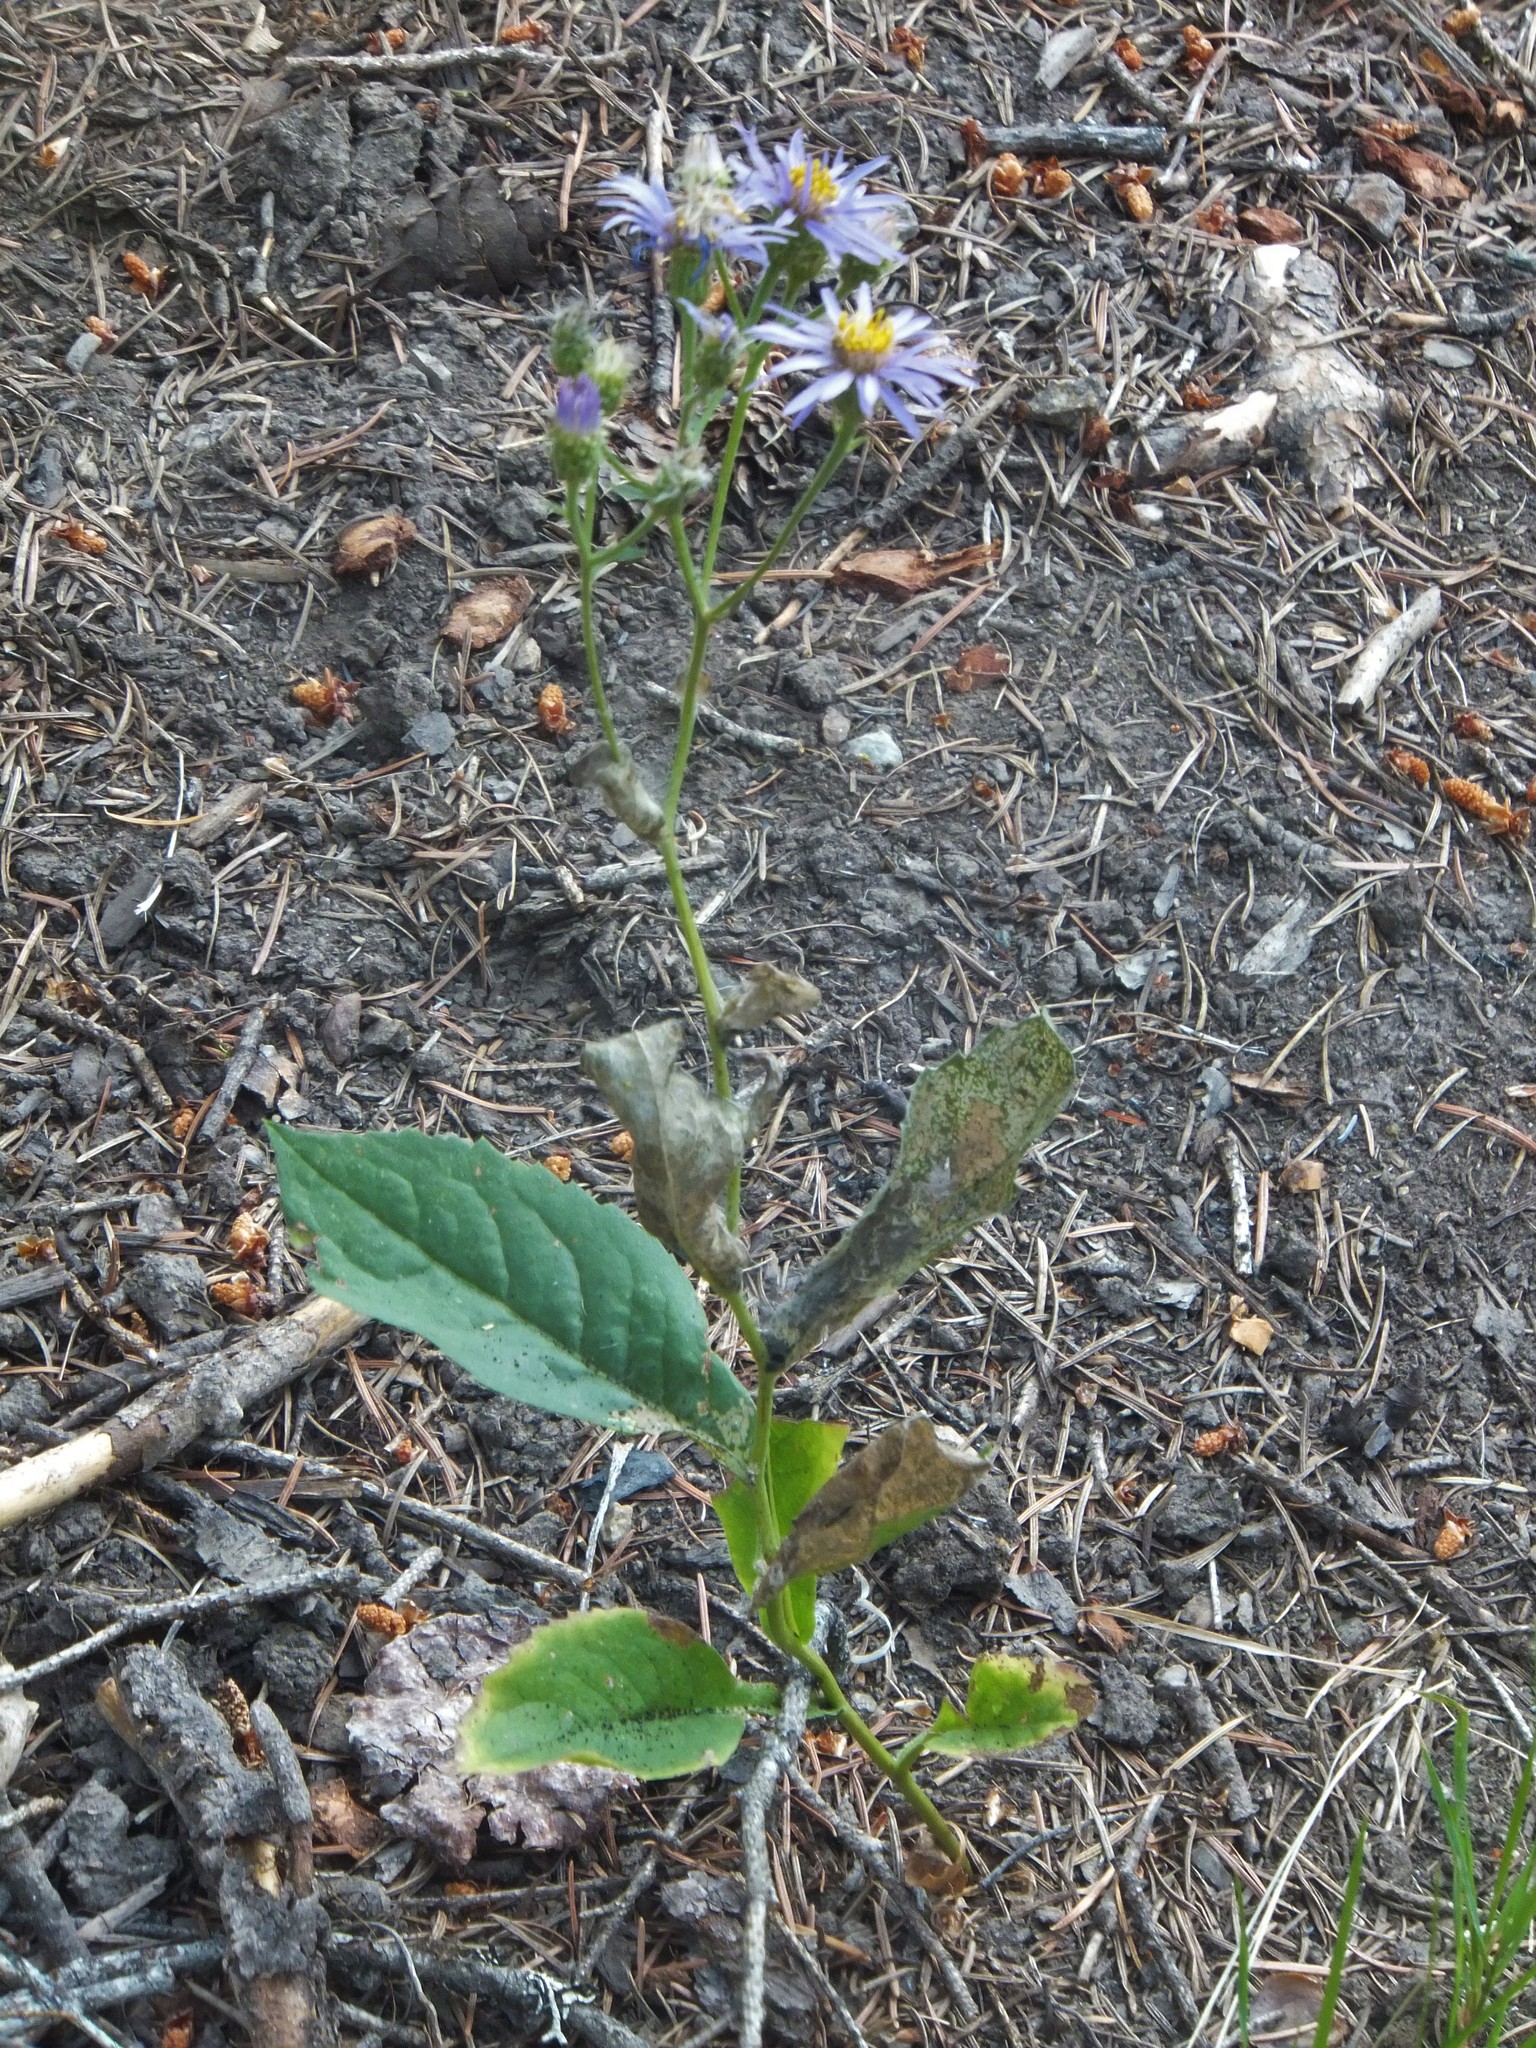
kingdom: Plantae
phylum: Tracheophyta
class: Magnoliopsida
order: Asterales
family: Asteraceae
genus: Eurybia
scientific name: Eurybia conspicua
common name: Showy aster
